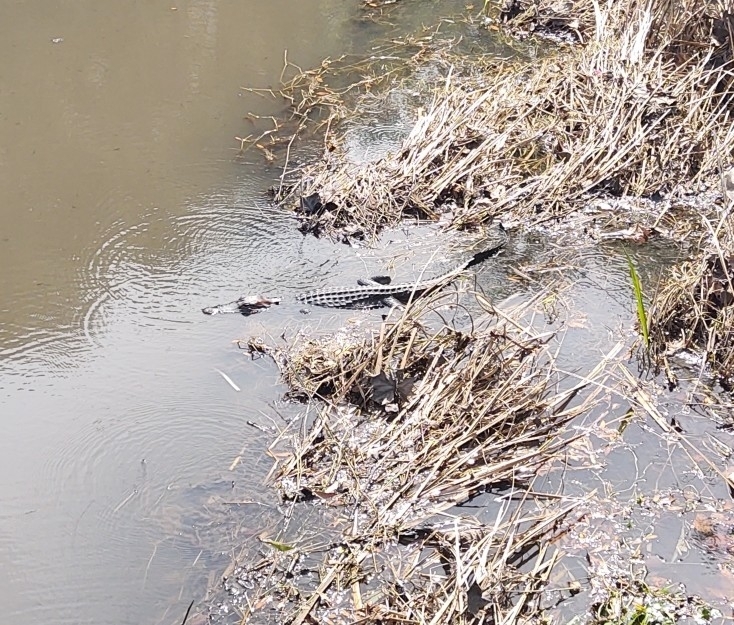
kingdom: Animalia
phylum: Chordata
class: Crocodylia
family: Alligatoridae
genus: Alligator
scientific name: Alligator mississippiensis
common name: American alligator
